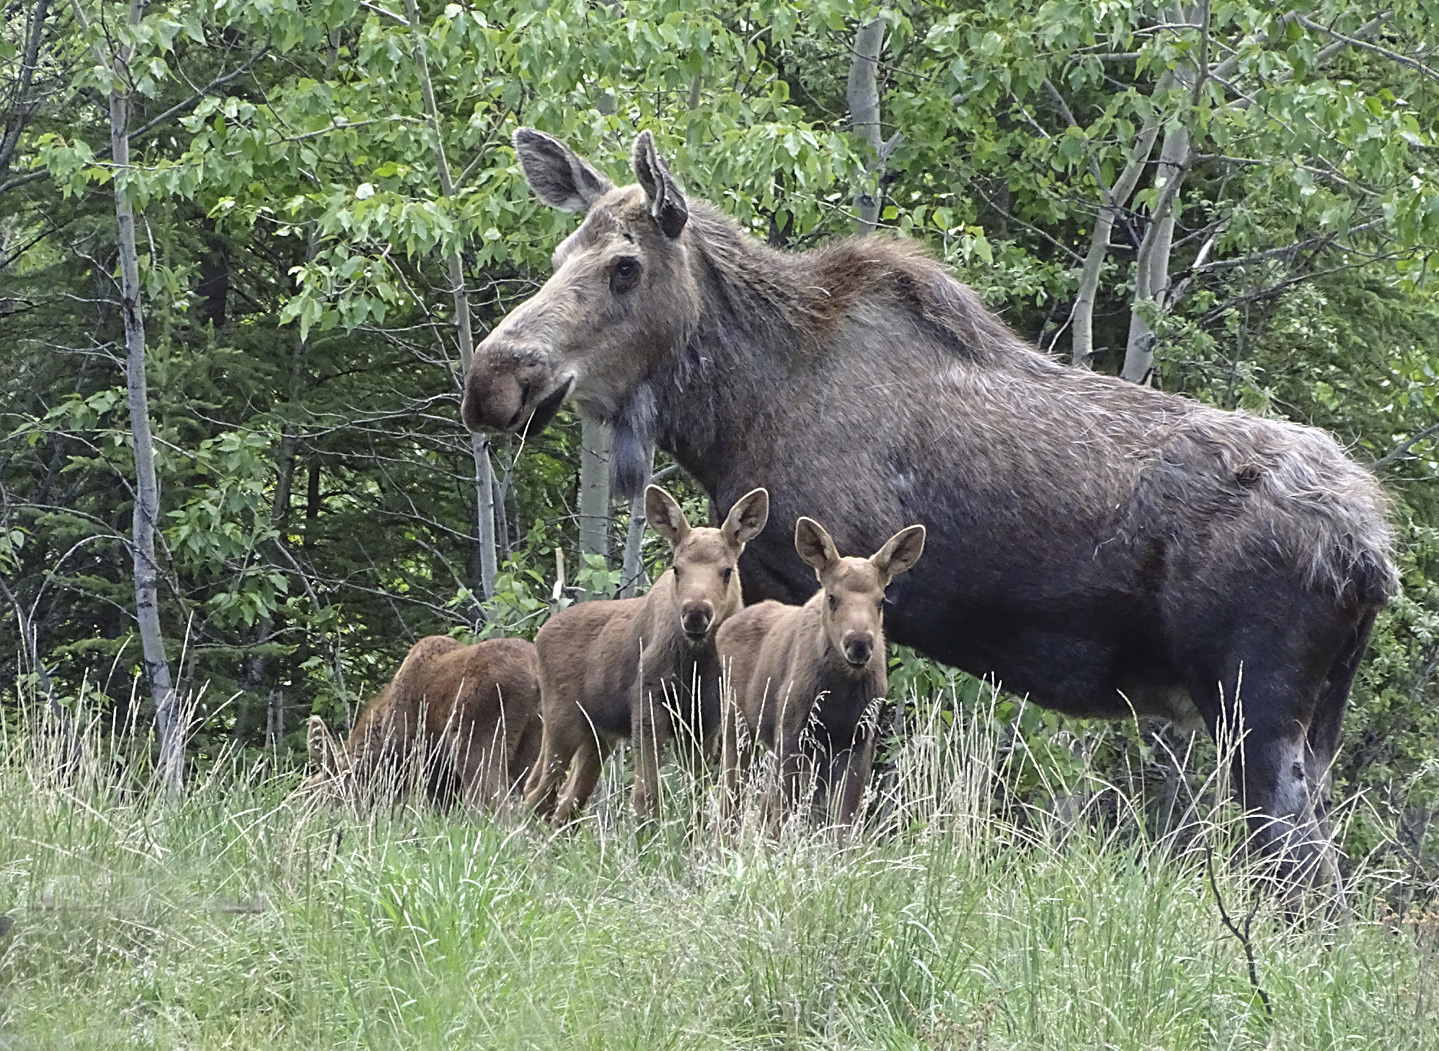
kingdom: Animalia
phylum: Chordata
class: Mammalia
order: Artiodactyla
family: Cervidae
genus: Alces
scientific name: Alces alces
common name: Moose
